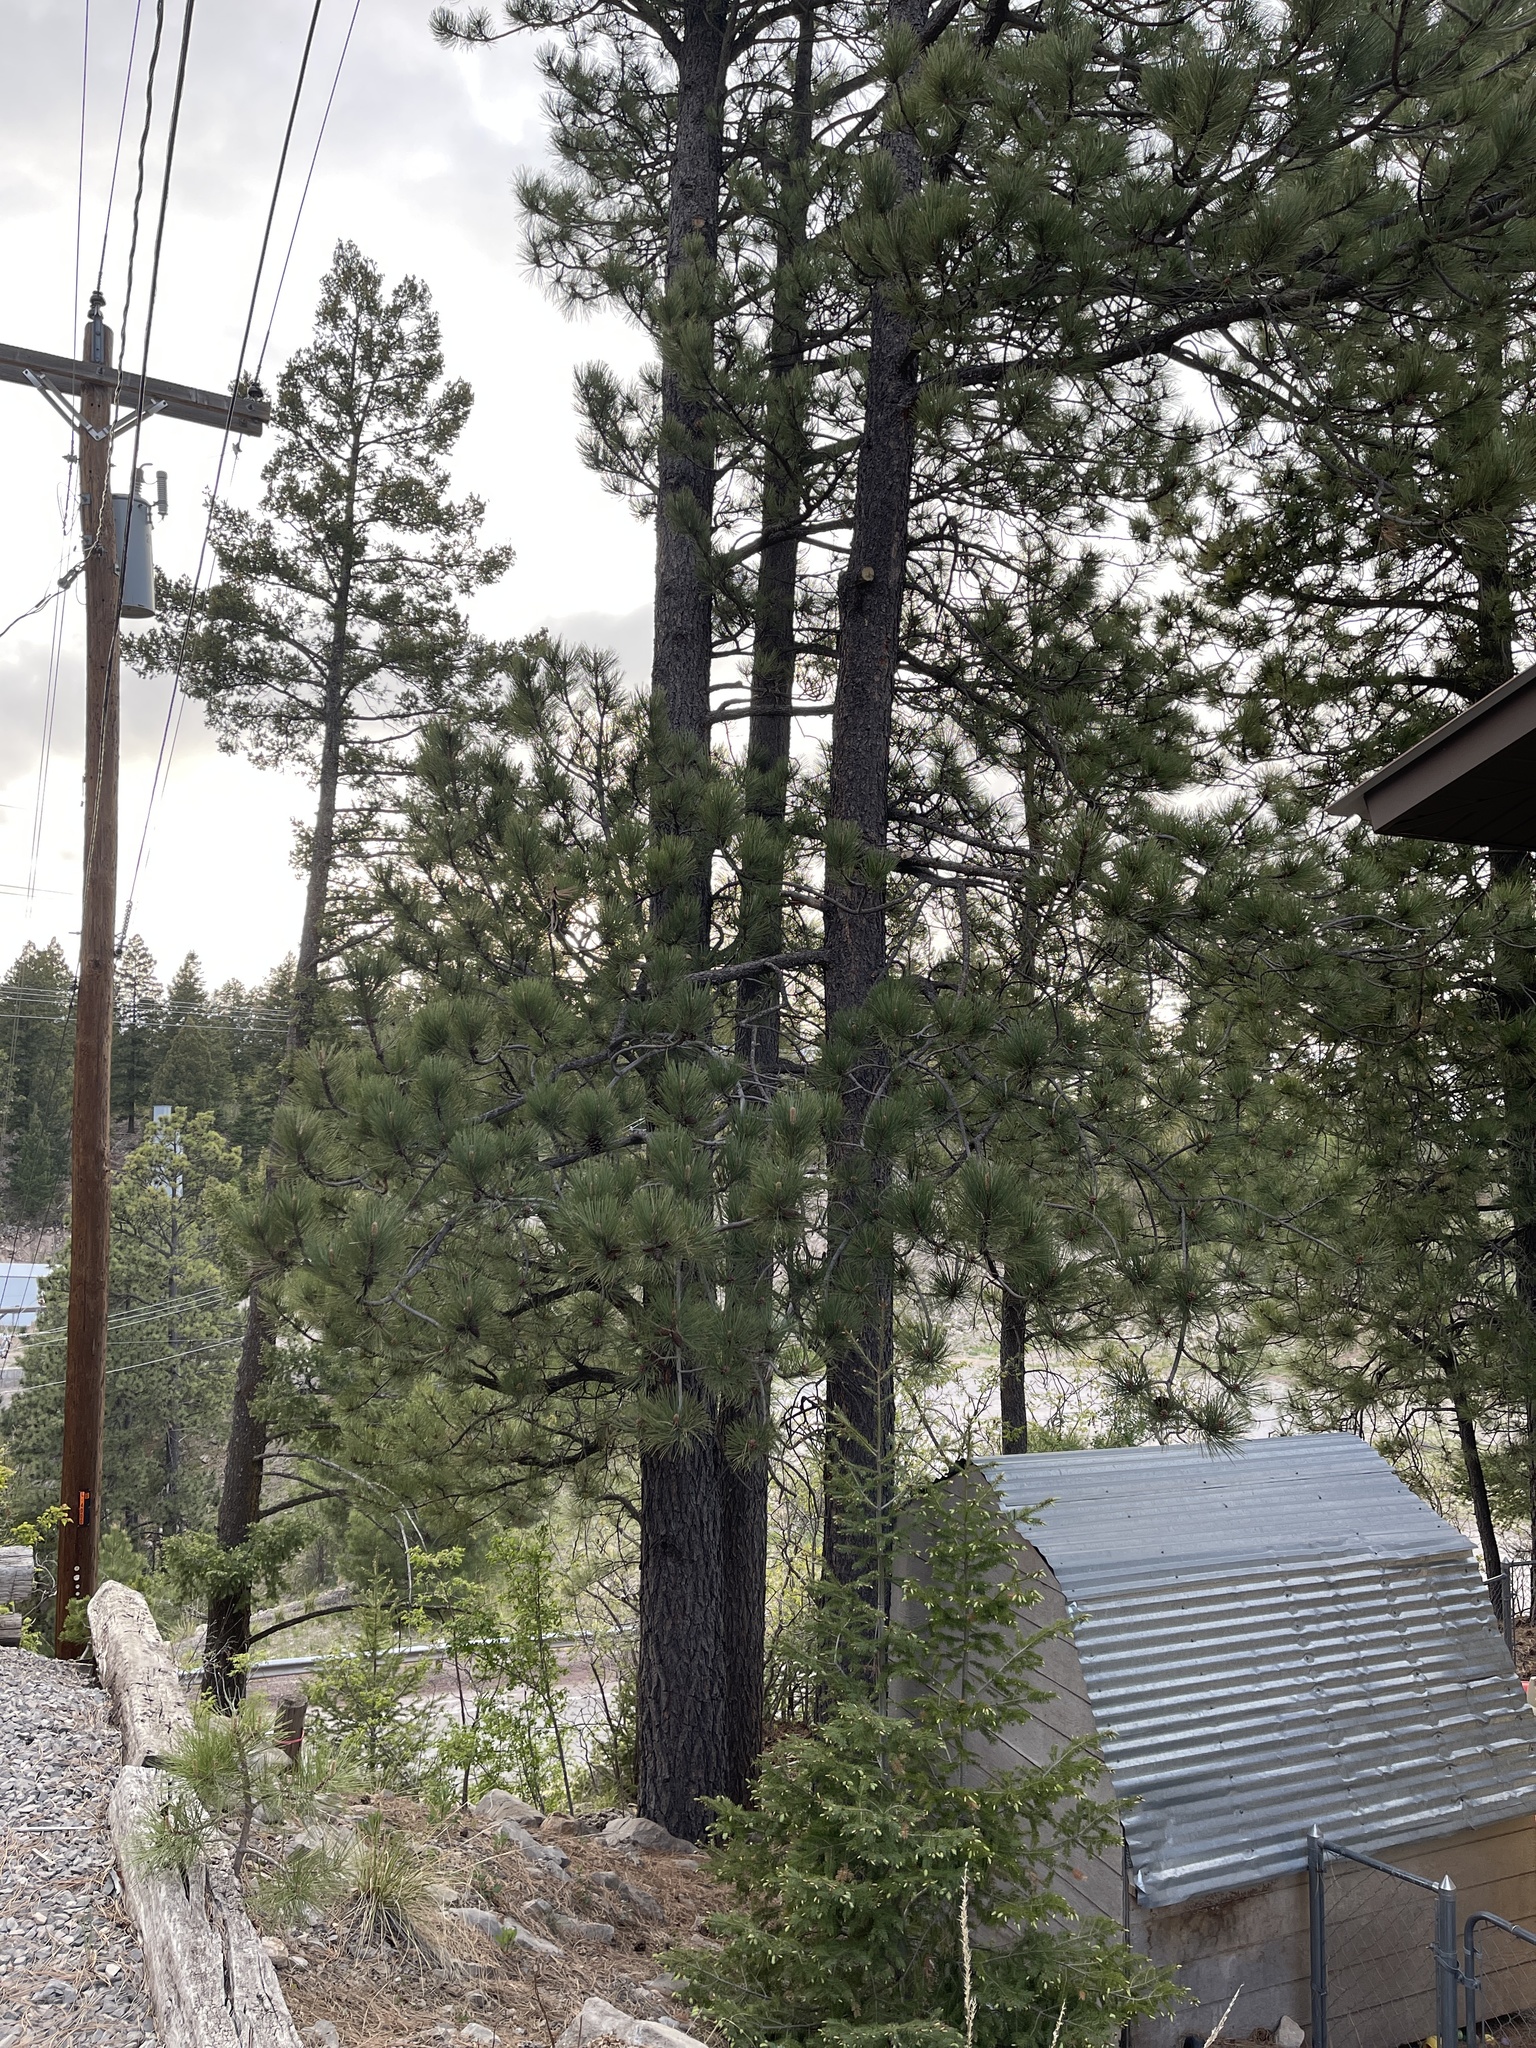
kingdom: Plantae
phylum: Tracheophyta
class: Pinopsida
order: Pinales
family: Pinaceae
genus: Pinus
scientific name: Pinus ponderosa
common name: Western yellow-pine
